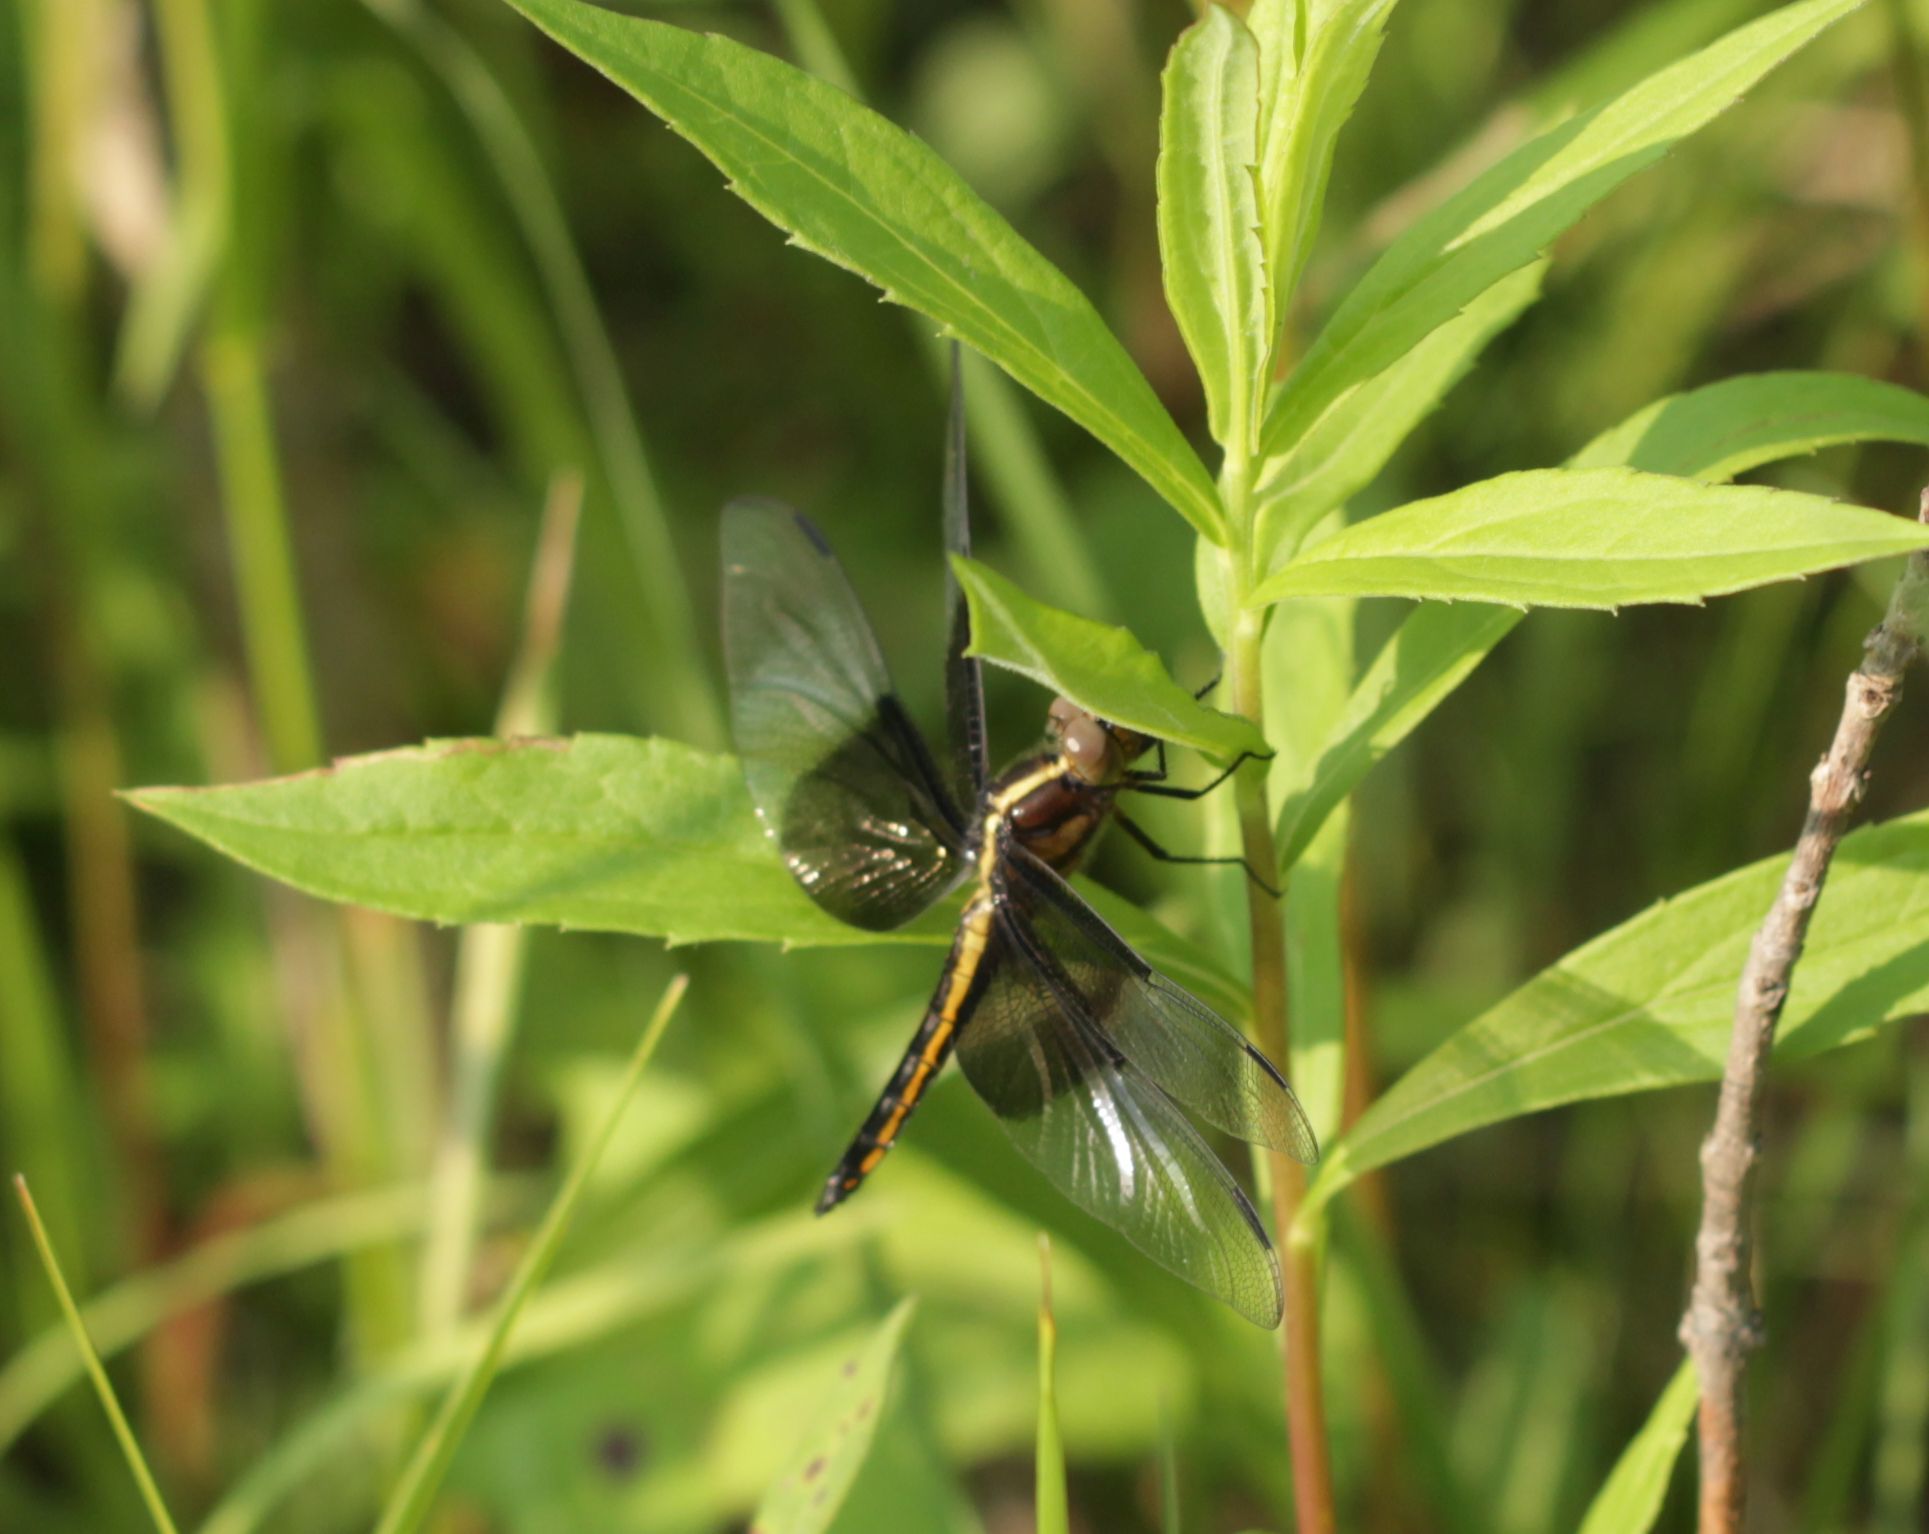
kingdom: Animalia
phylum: Arthropoda
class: Insecta
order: Odonata
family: Libellulidae
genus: Libellula
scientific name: Libellula luctuosa
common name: Widow skimmer
